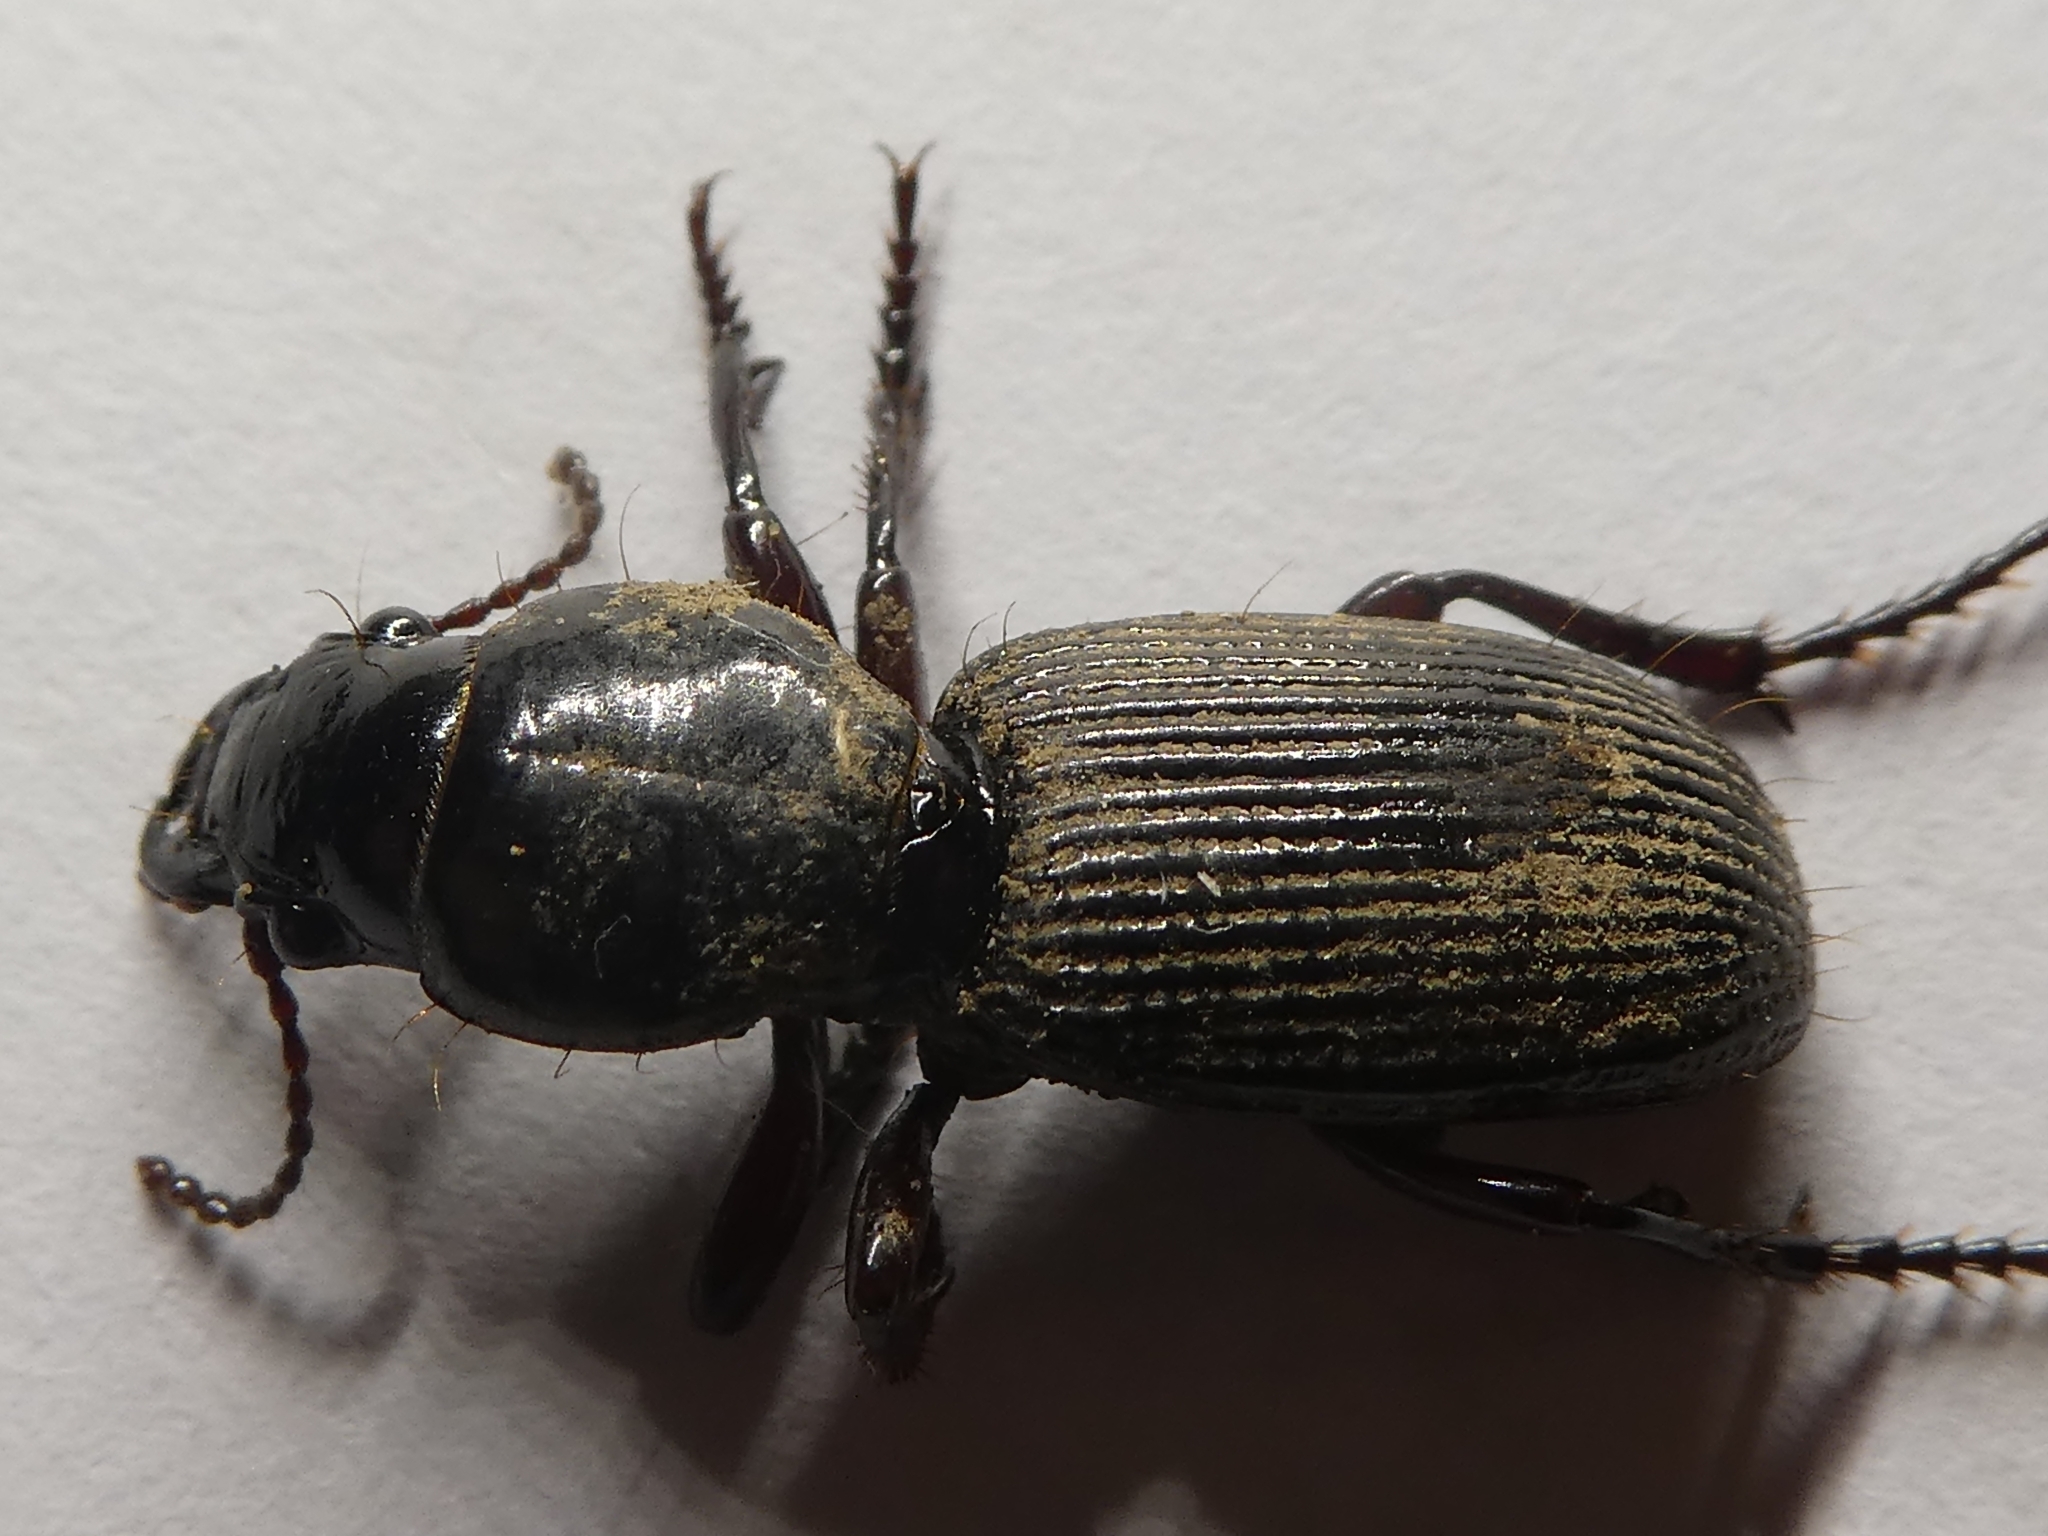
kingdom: Animalia
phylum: Arthropoda
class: Insecta
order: Coleoptera
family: Carabidae
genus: Mecodema
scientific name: Mecodema oblongum
